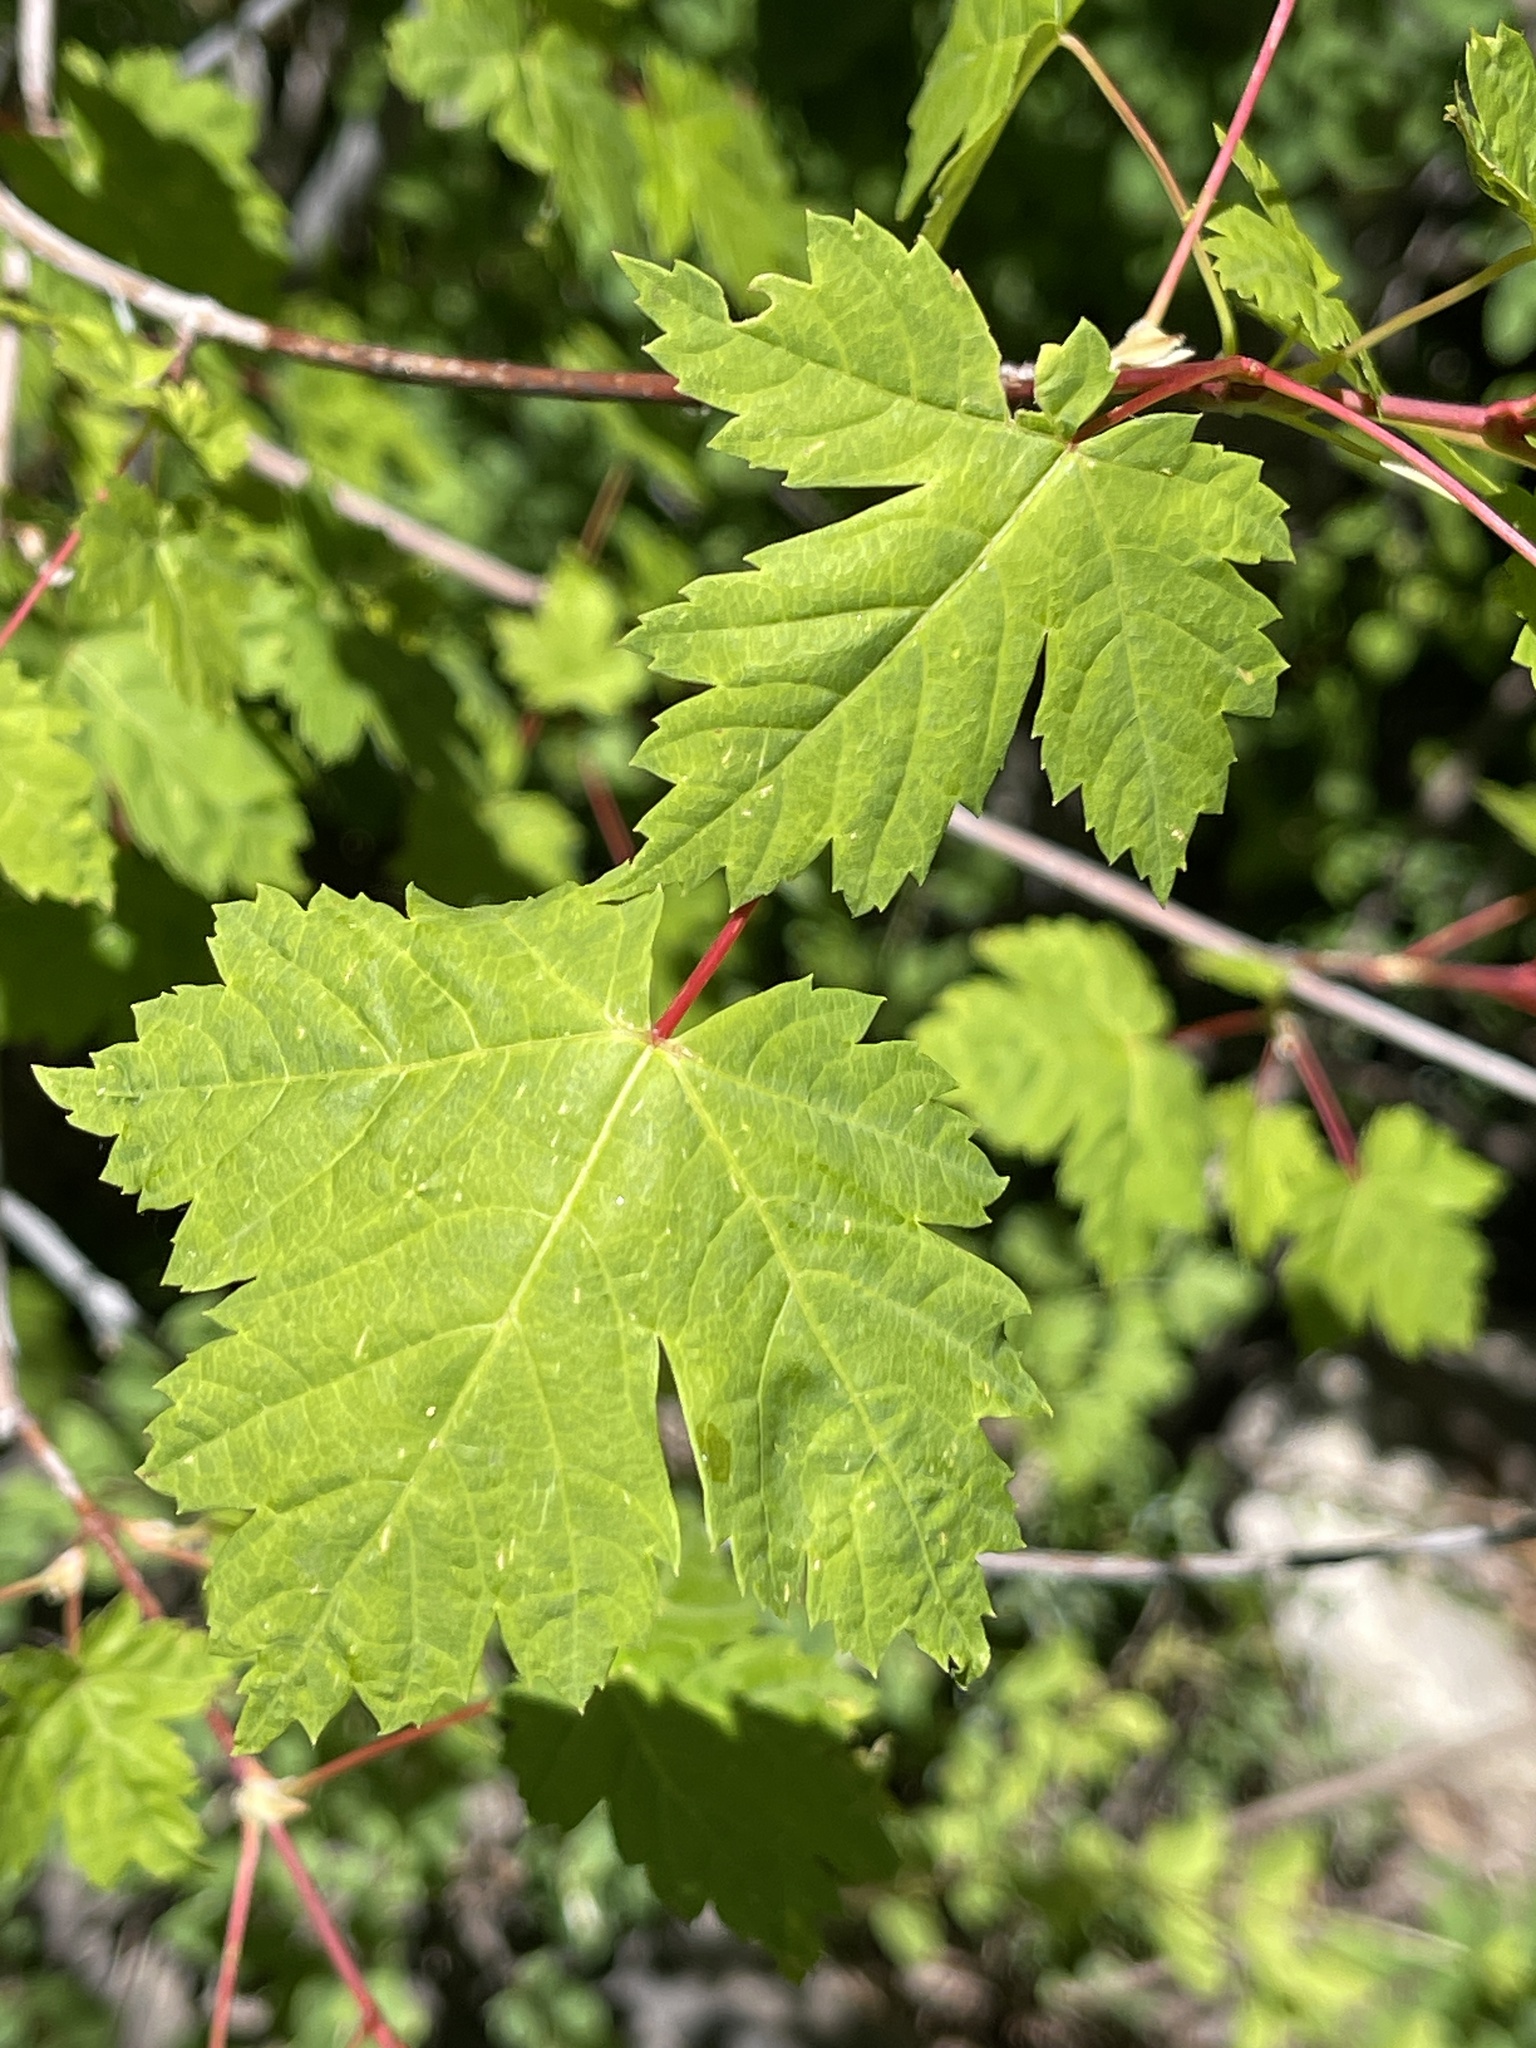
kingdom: Plantae
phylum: Tracheophyta
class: Magnoliopsida
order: Sapindales
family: Sapindaceae
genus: Acer
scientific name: Acer glabrum
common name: Rocky mountain maple
